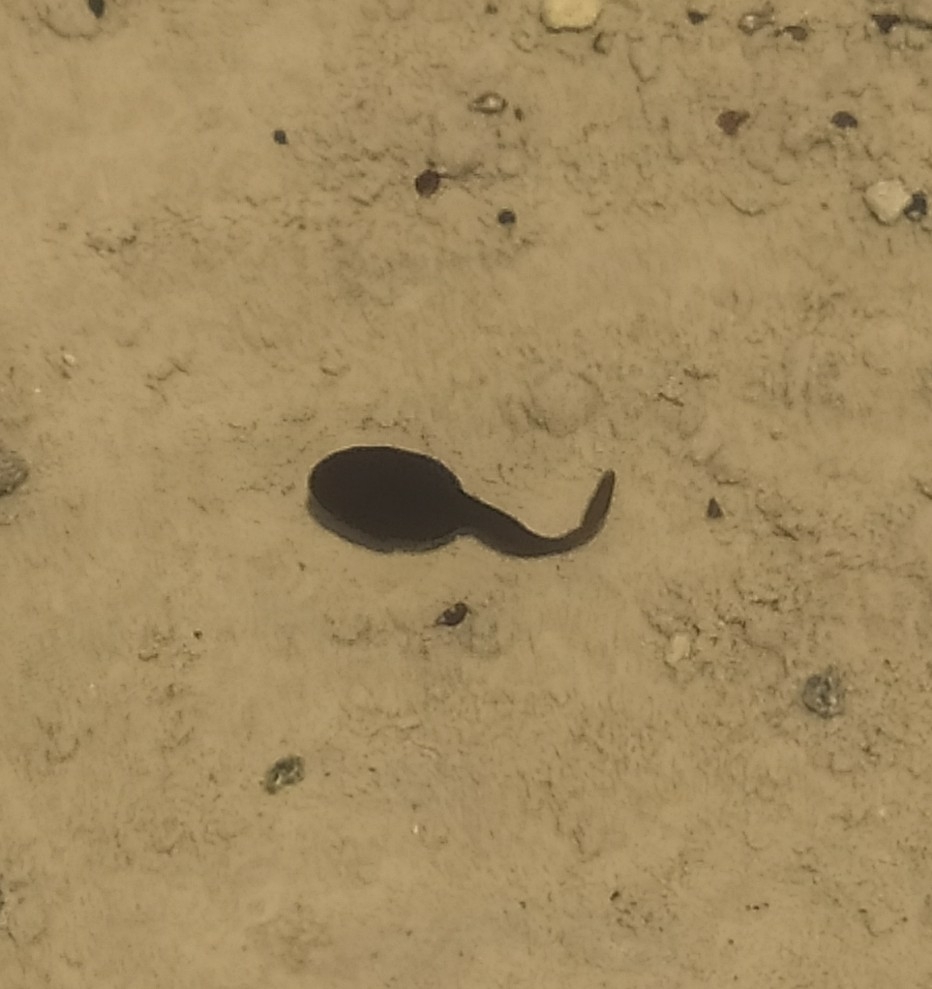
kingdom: Animalia
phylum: Chordata
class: Amphibia
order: Anura
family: Bufonidae
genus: Bufo
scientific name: Bufo bufo
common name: Common toad
